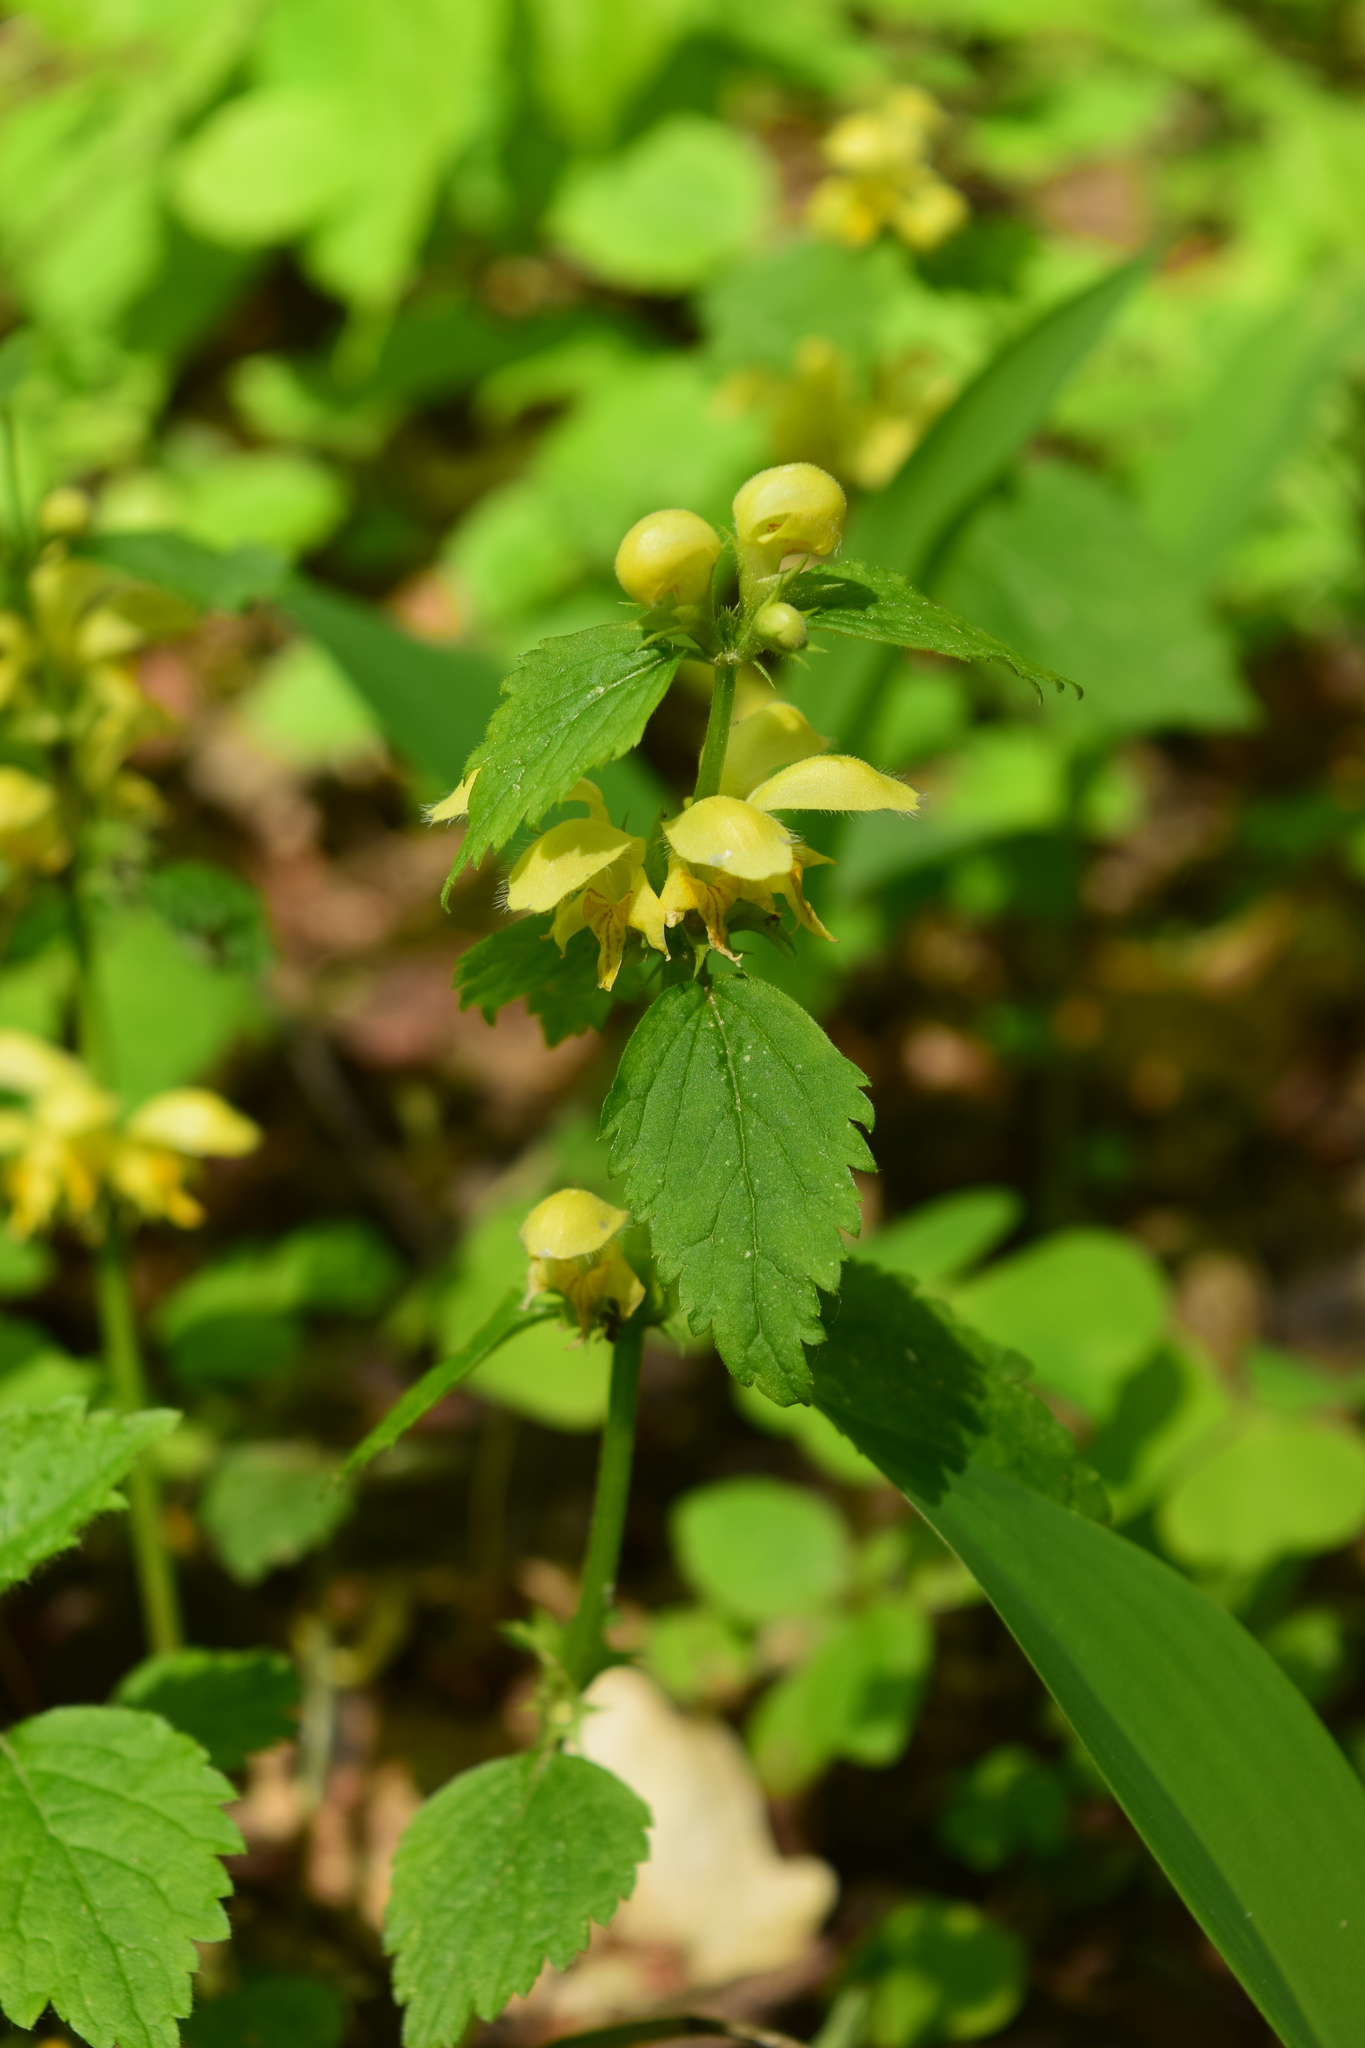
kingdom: Plantae
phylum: Tracheophyta
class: Magnoliopsida
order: Lamiales
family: Lamiaceae
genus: Lamium
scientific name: Lamium galeobdolon
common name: Yellow archangel
